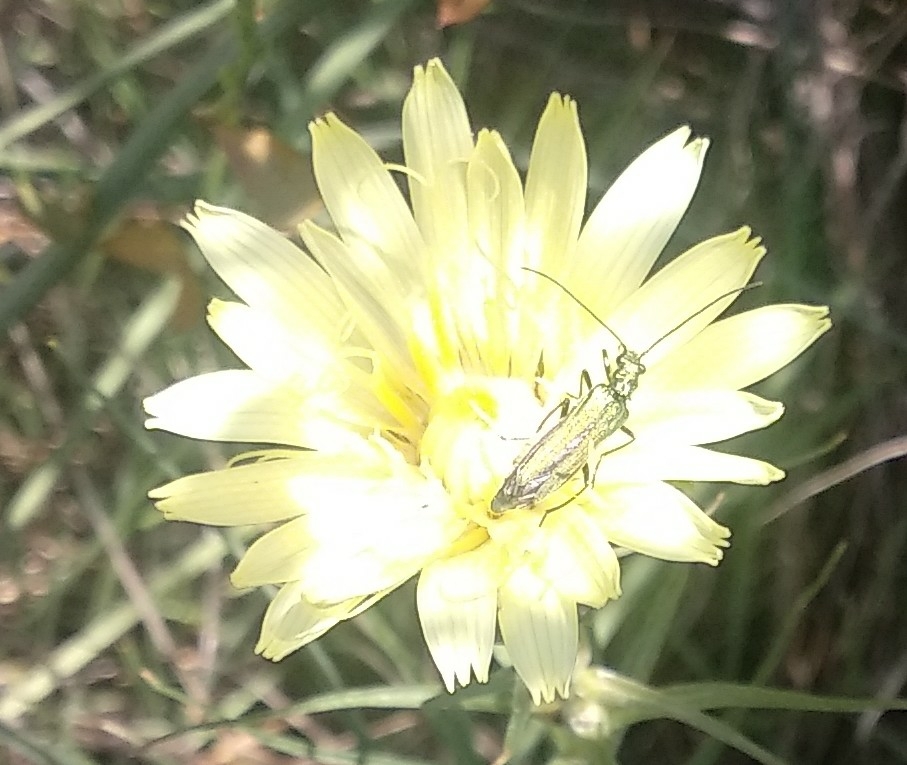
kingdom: Animalia
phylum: Arthropoda
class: Insecta
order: Coleoptera
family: Oedemeridae
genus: Oedemera
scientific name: Oedemera nobilis
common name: Swollen-thighed beetle
